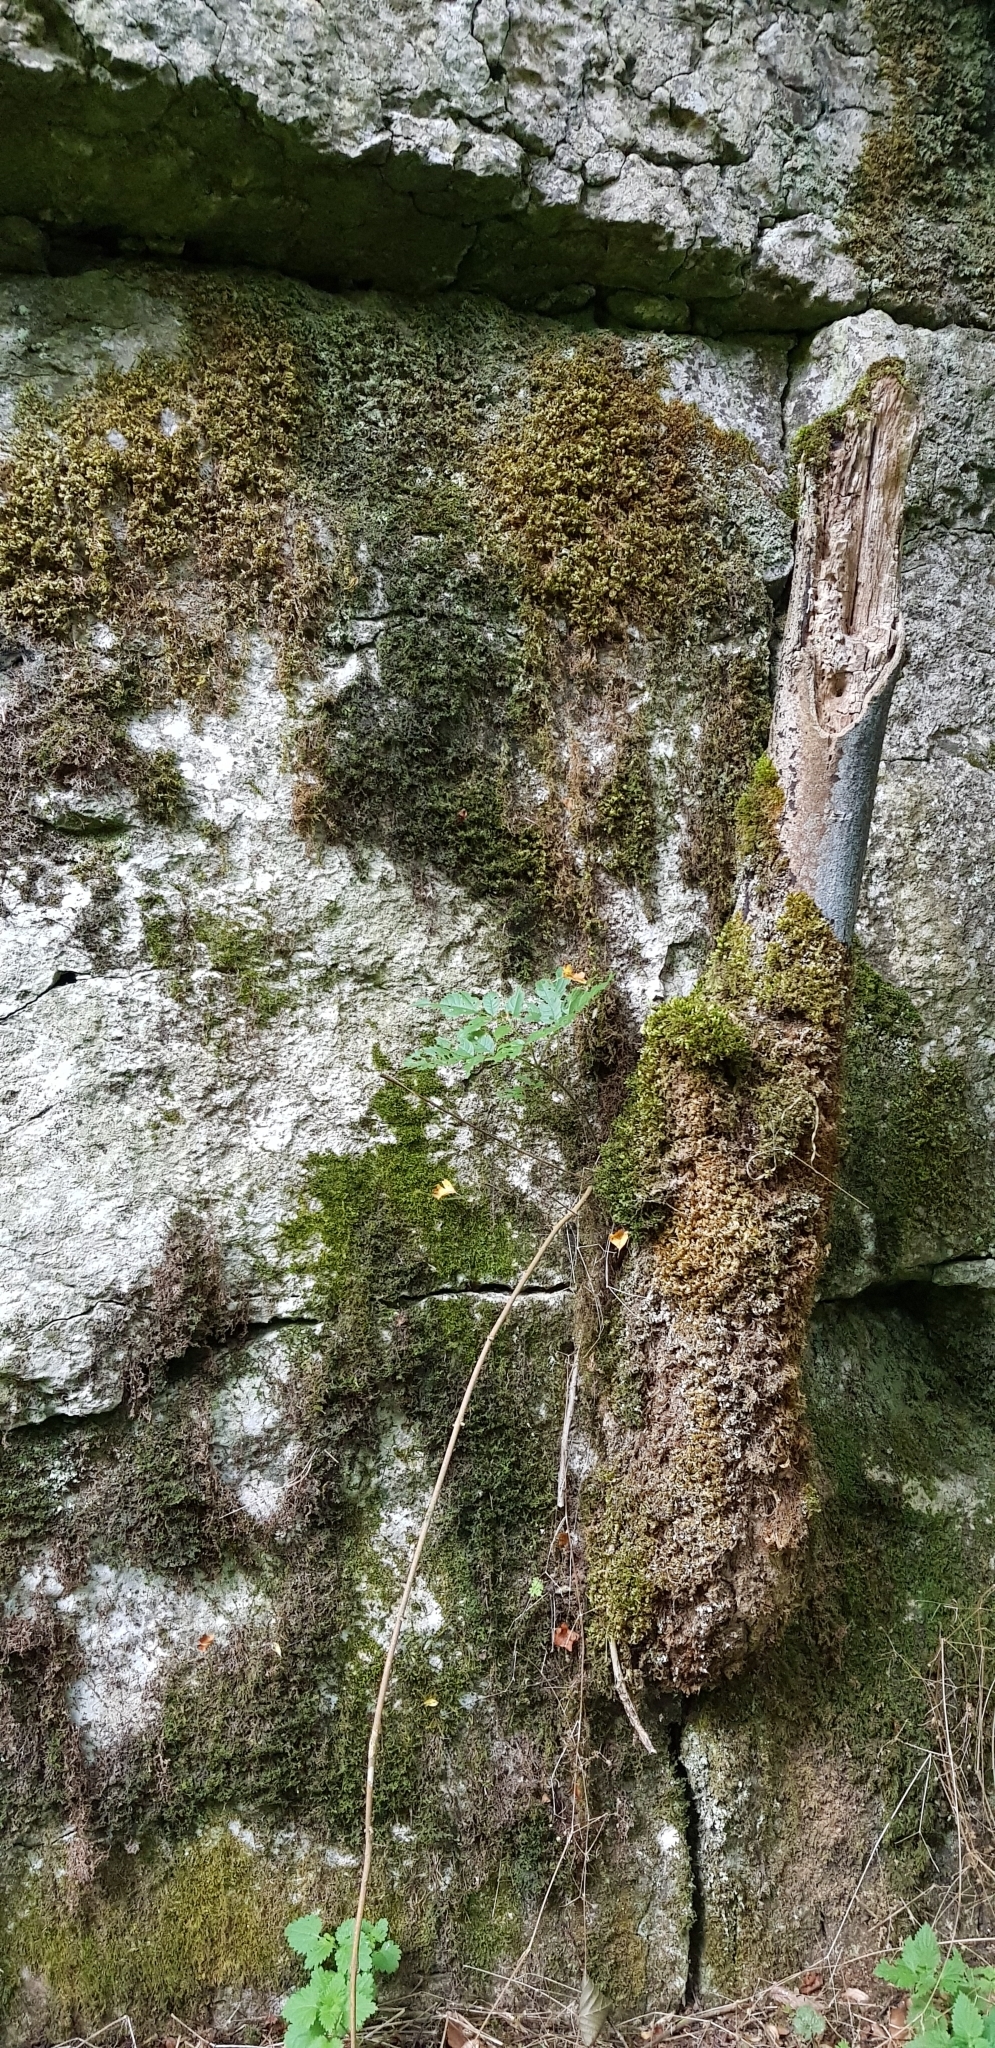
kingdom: Plantae
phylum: Bryophyta
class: Bryopsida
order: Hypnales
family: Brachytheciaceae
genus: Rhynchostegium
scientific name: Rhynchostegium confertum
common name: Clustered feather-moss
